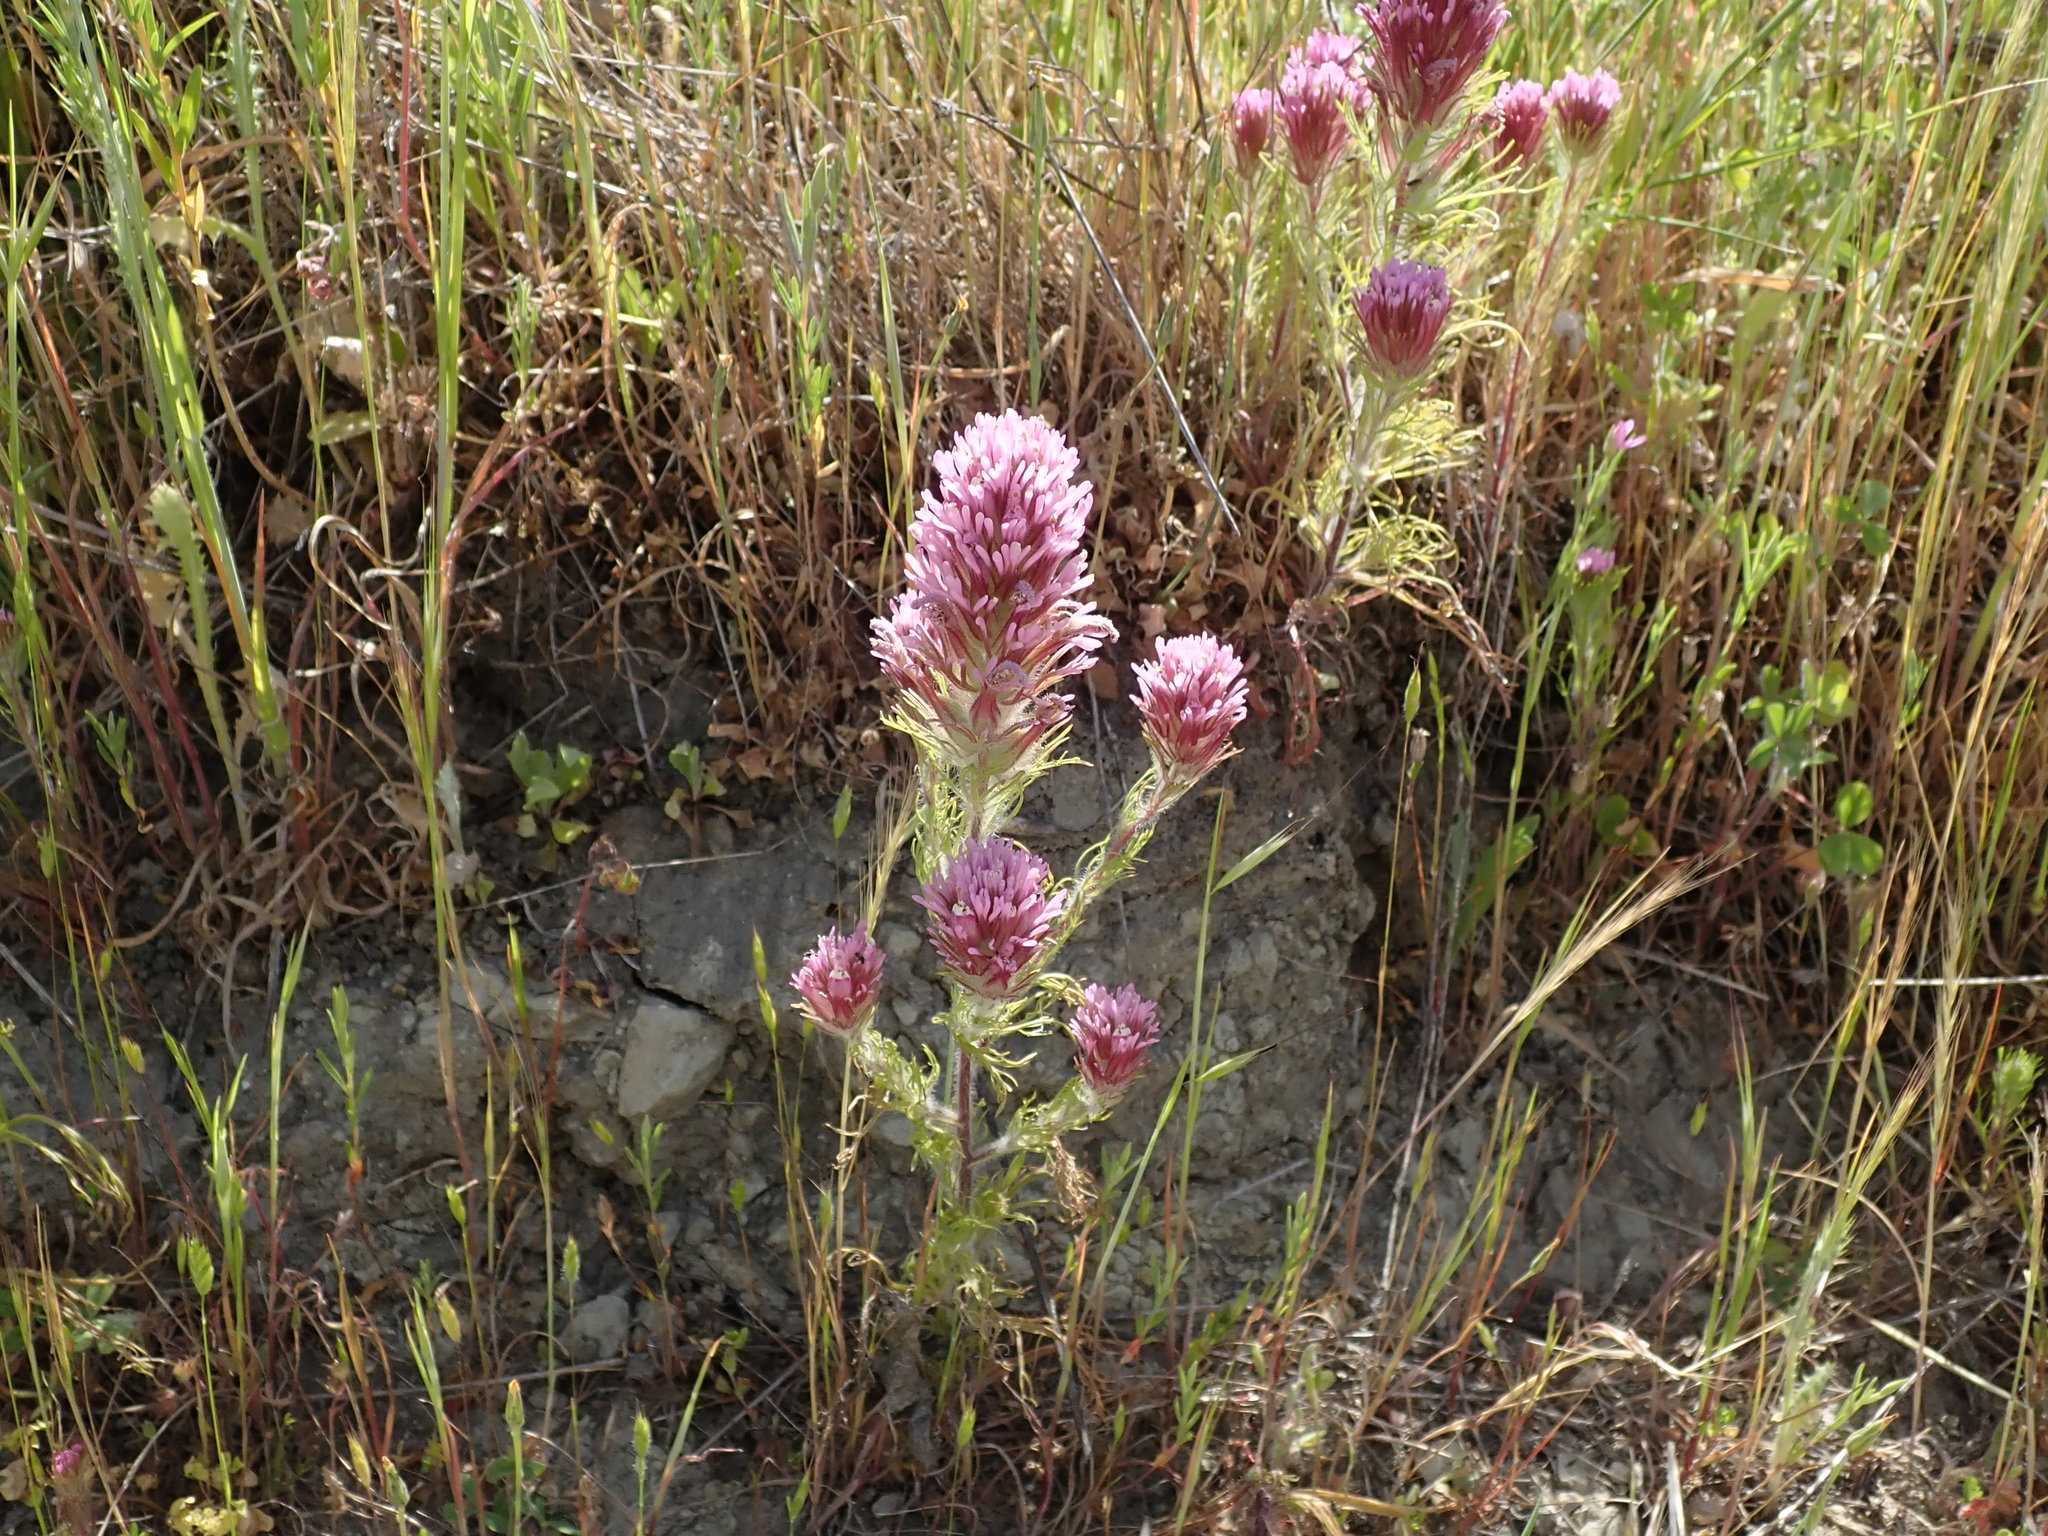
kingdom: Plantae
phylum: Tracheophyta
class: Magnoliopsida
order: Lamiales
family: Orobanchaceae
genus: Castilleja
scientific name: Castilleja exserta
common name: Purple owl-clover
